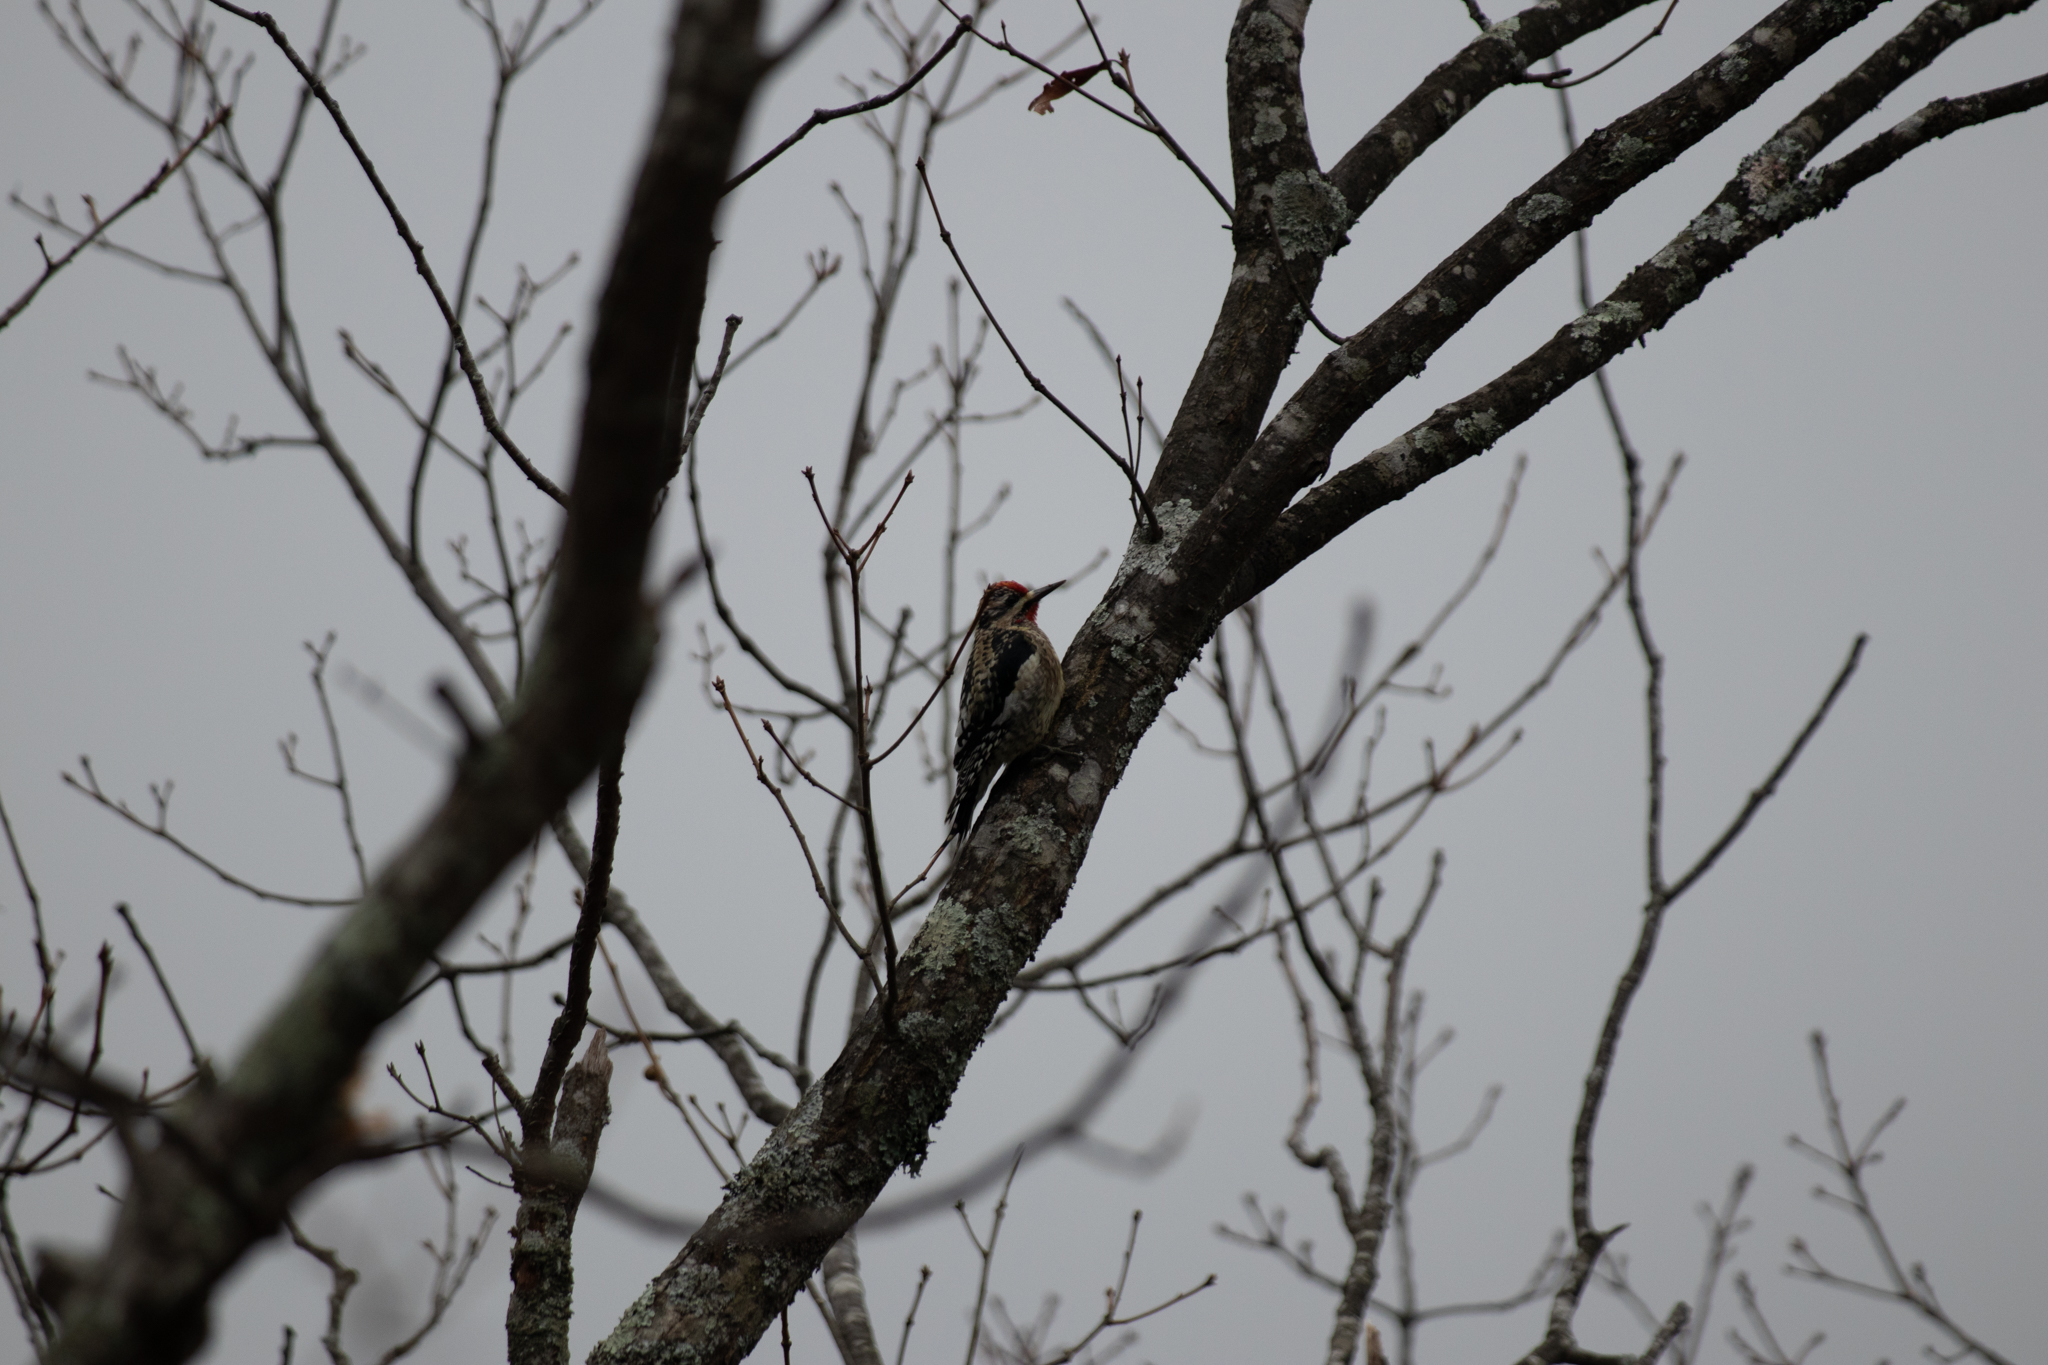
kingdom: Animalia
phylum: Chordata
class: Aves
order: Piciformes
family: Picidae
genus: Sphyrapicus
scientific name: Sphyrapicus varius
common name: Yellow-bellied sapsucker
